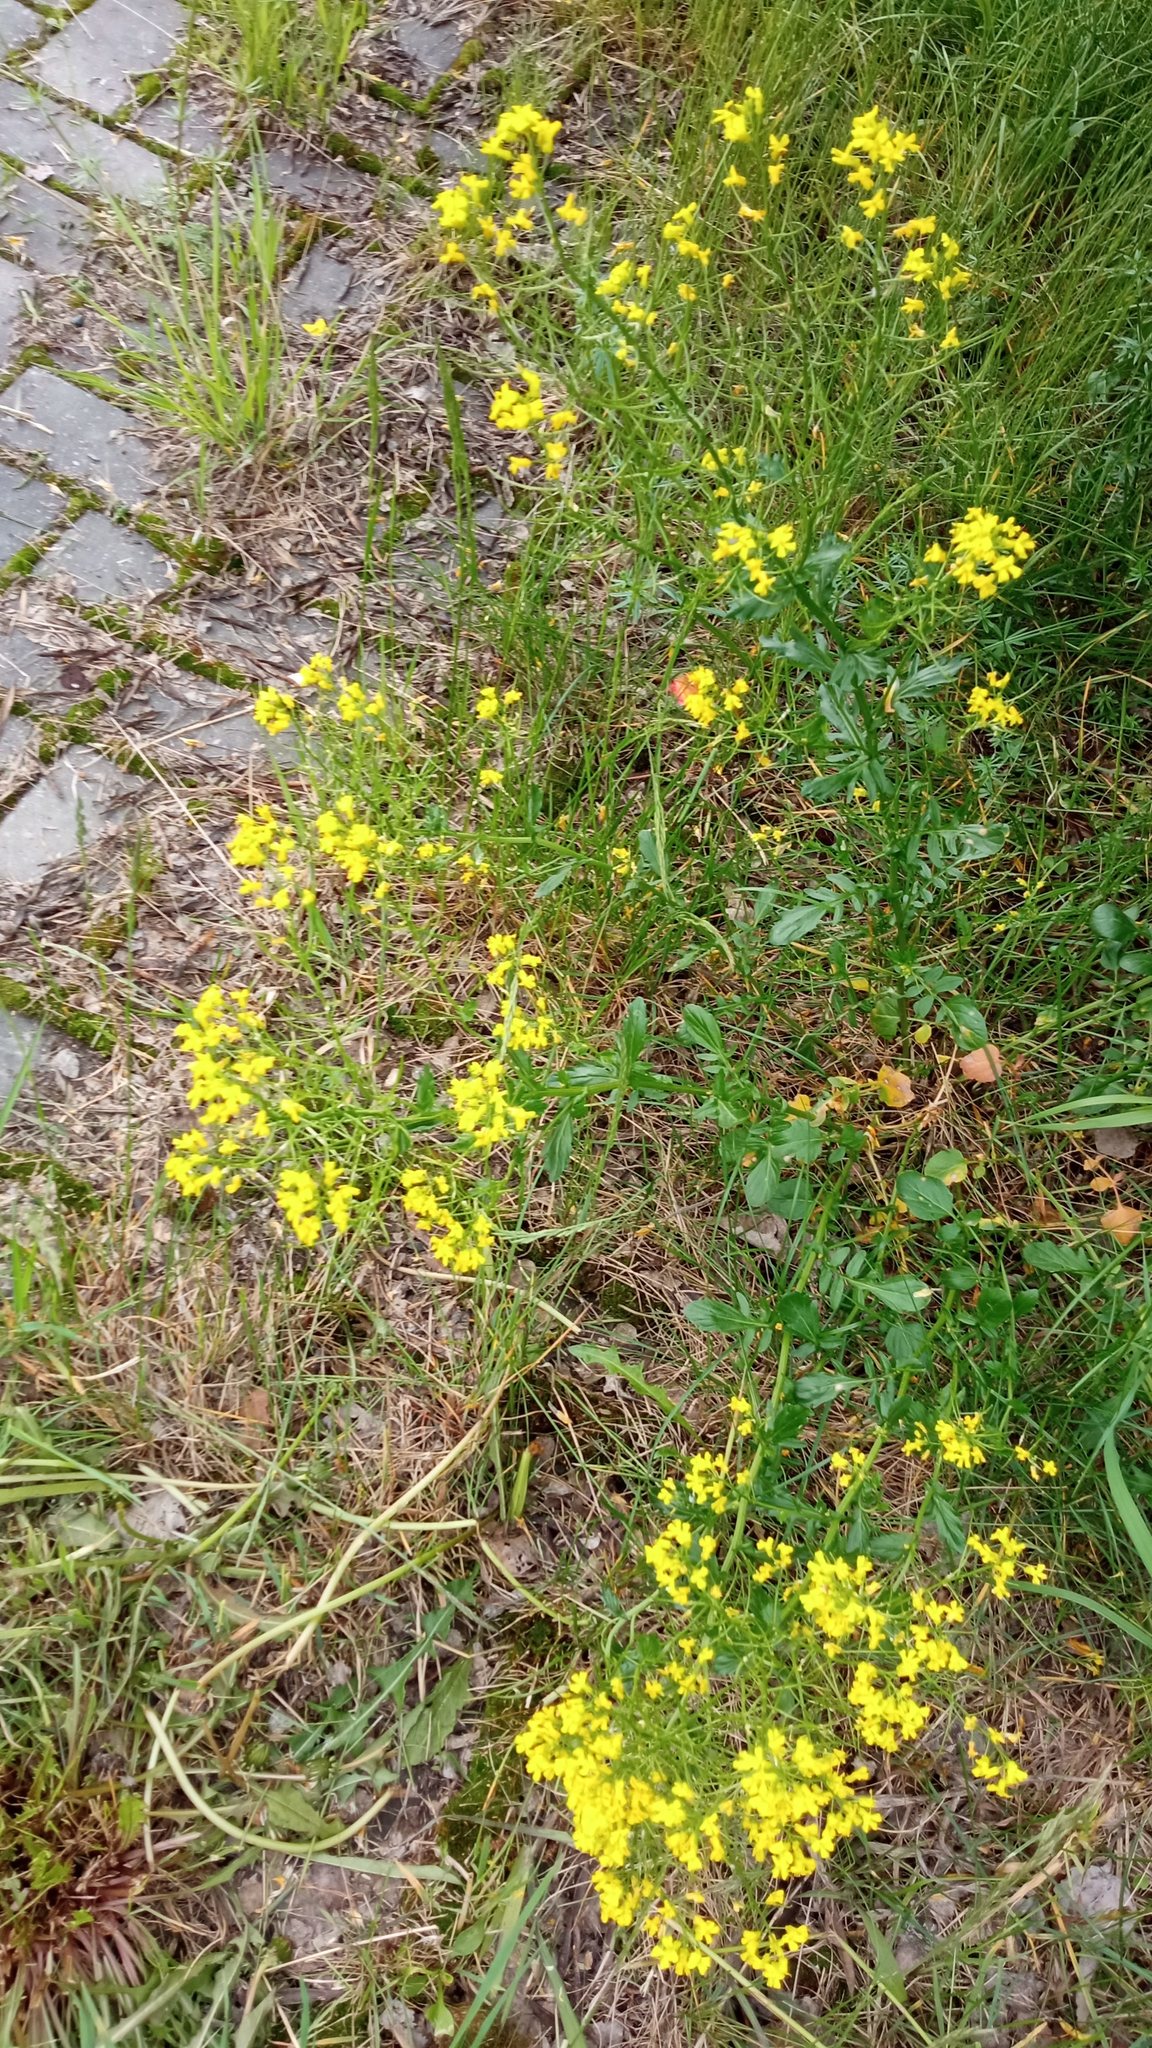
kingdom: Plantae
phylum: Tracheophyta
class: Magnoliopsida
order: Brassicales
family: Brassicaceae
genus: Barbarea
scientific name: Barbarea vulgaris
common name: Cressy-greens
